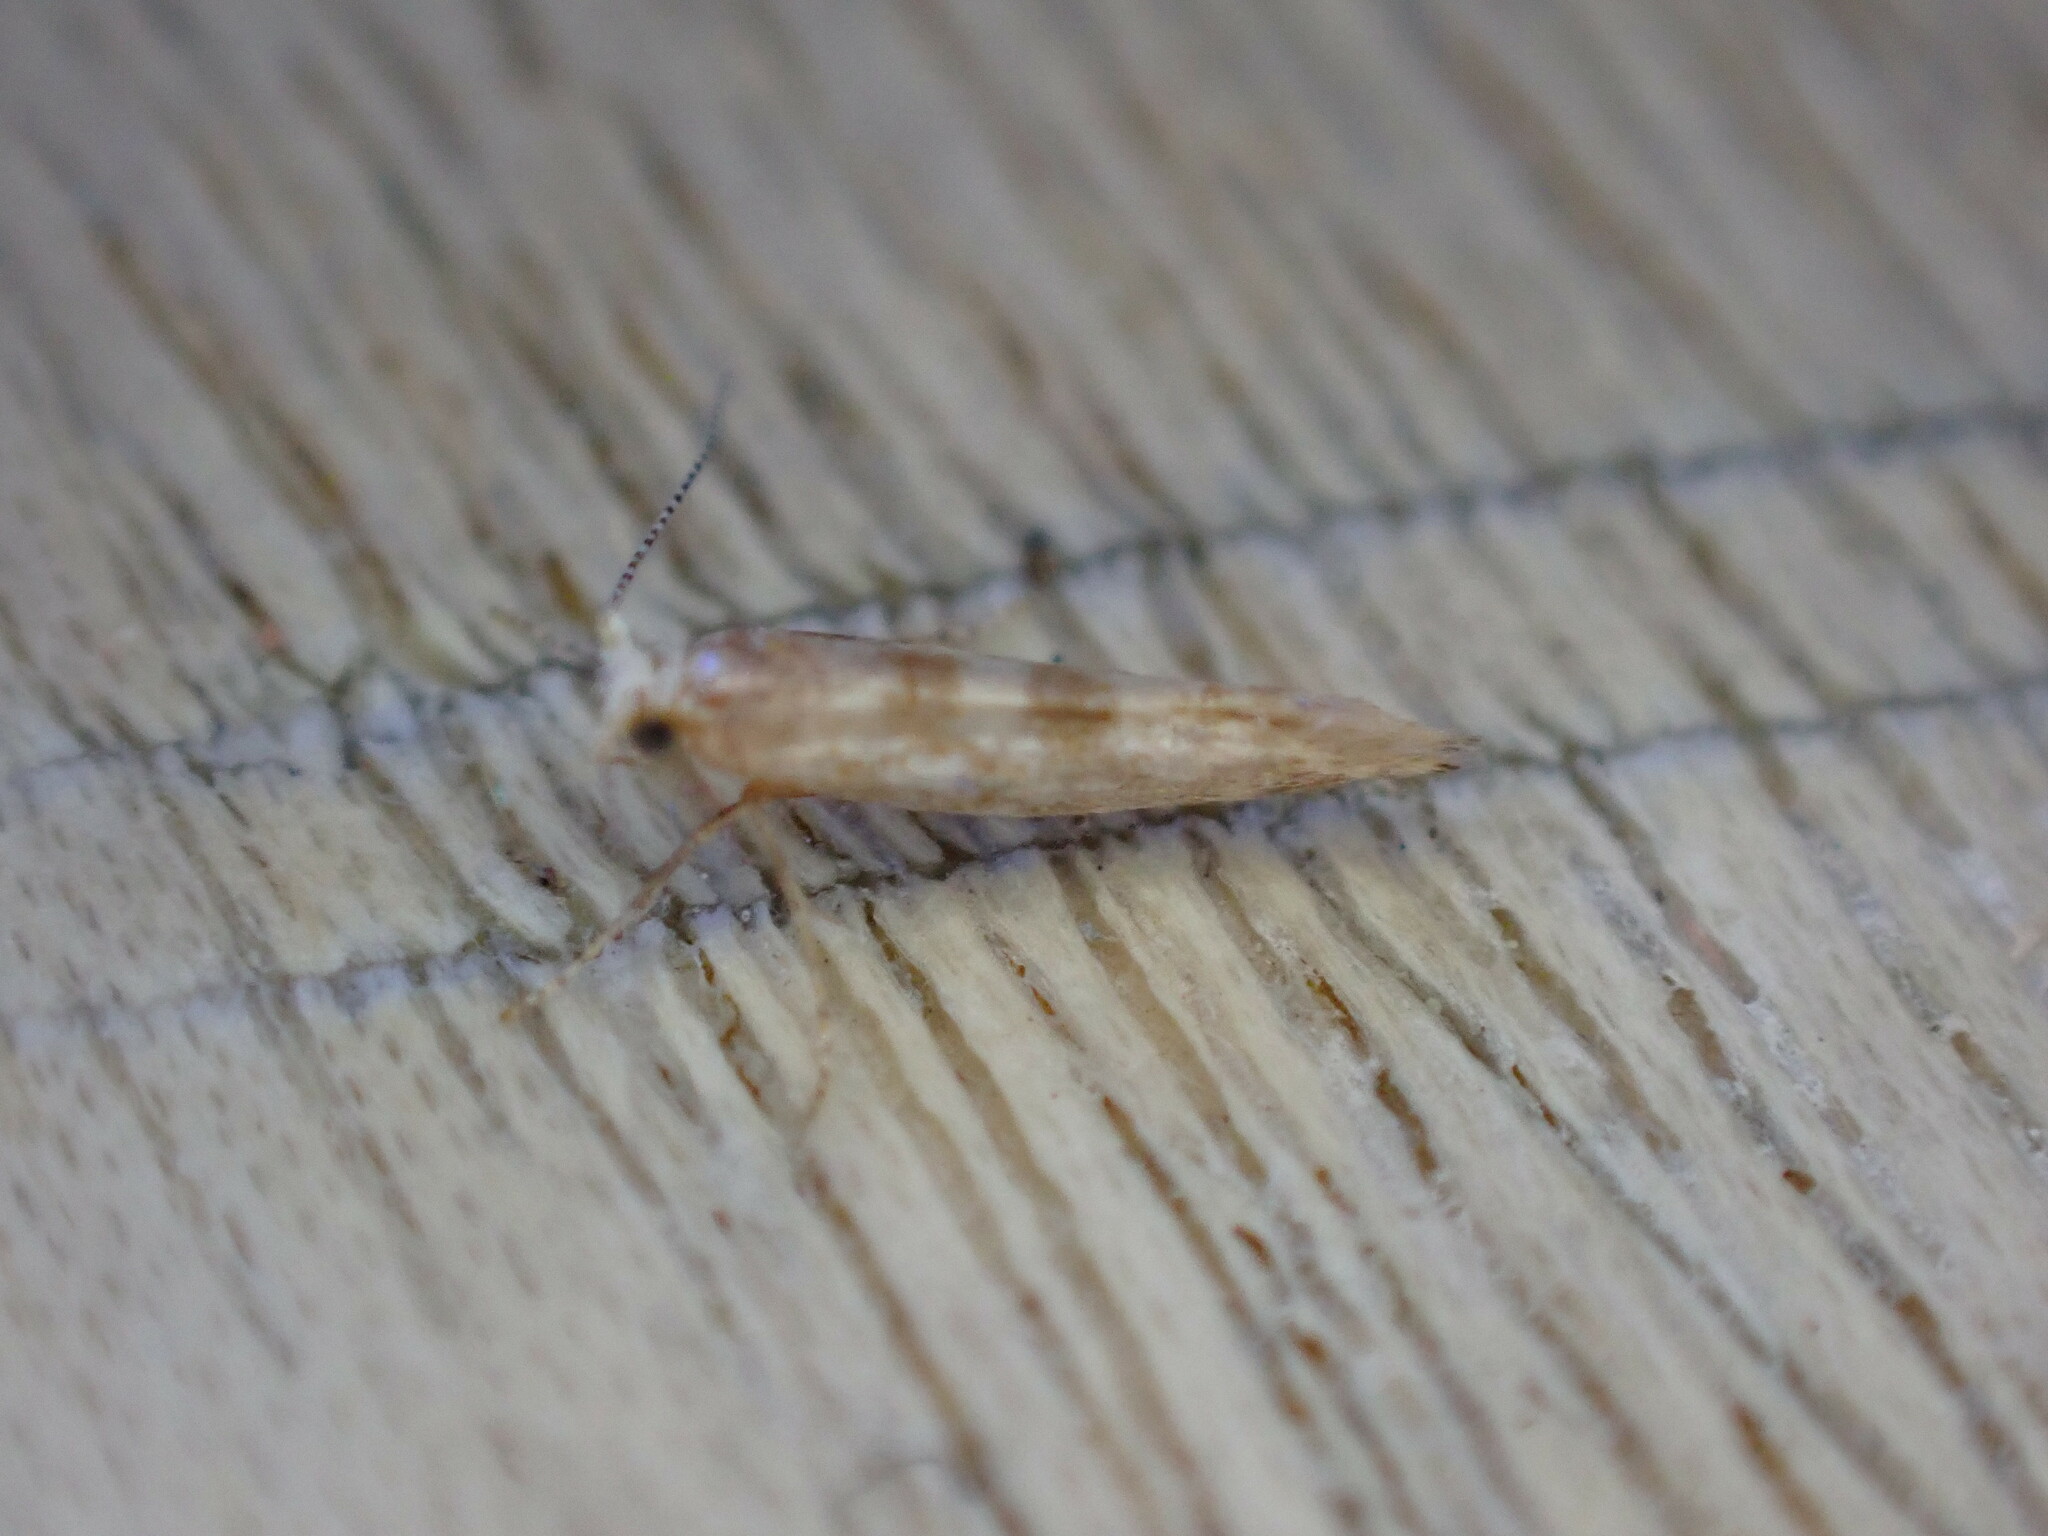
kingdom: Animalia
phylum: Arthropoda
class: Insecta
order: Lepidoptera
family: Argyresthiidae
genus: Argyresthia
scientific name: Argyresthia cupressella
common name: Cypress tip moth
